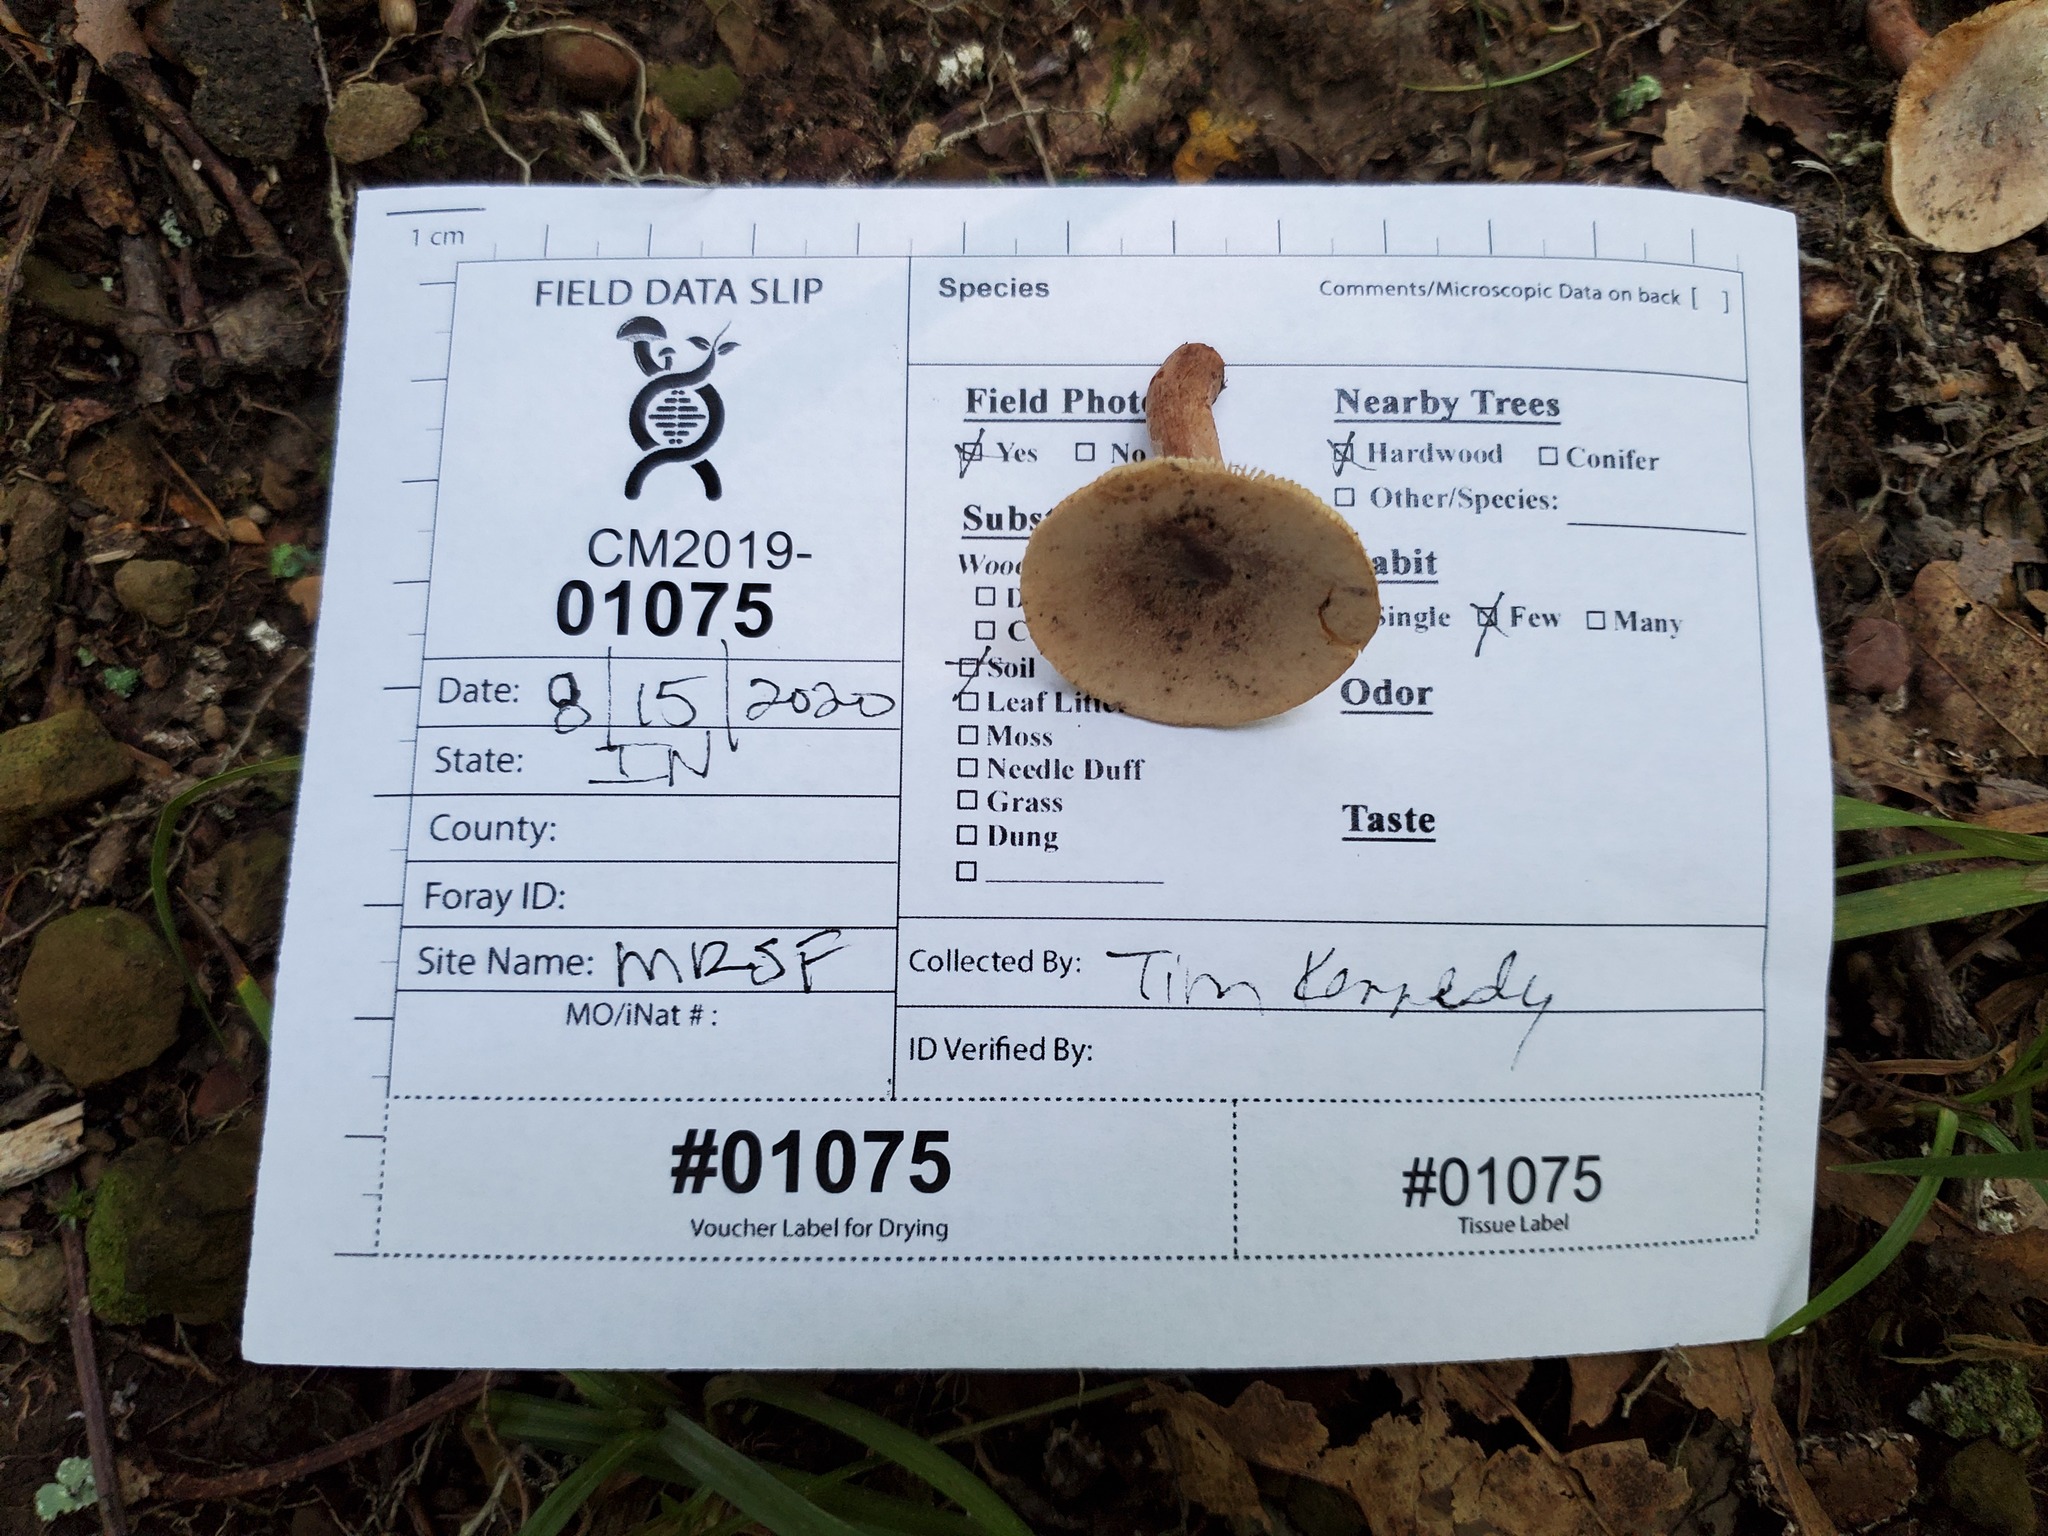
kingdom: Fungi
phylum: Basidiomycota
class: Agaricomycetes
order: Russulales
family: Russulaceae
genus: Lactarius
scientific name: Lactarius quietus
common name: Oak milk-cap
